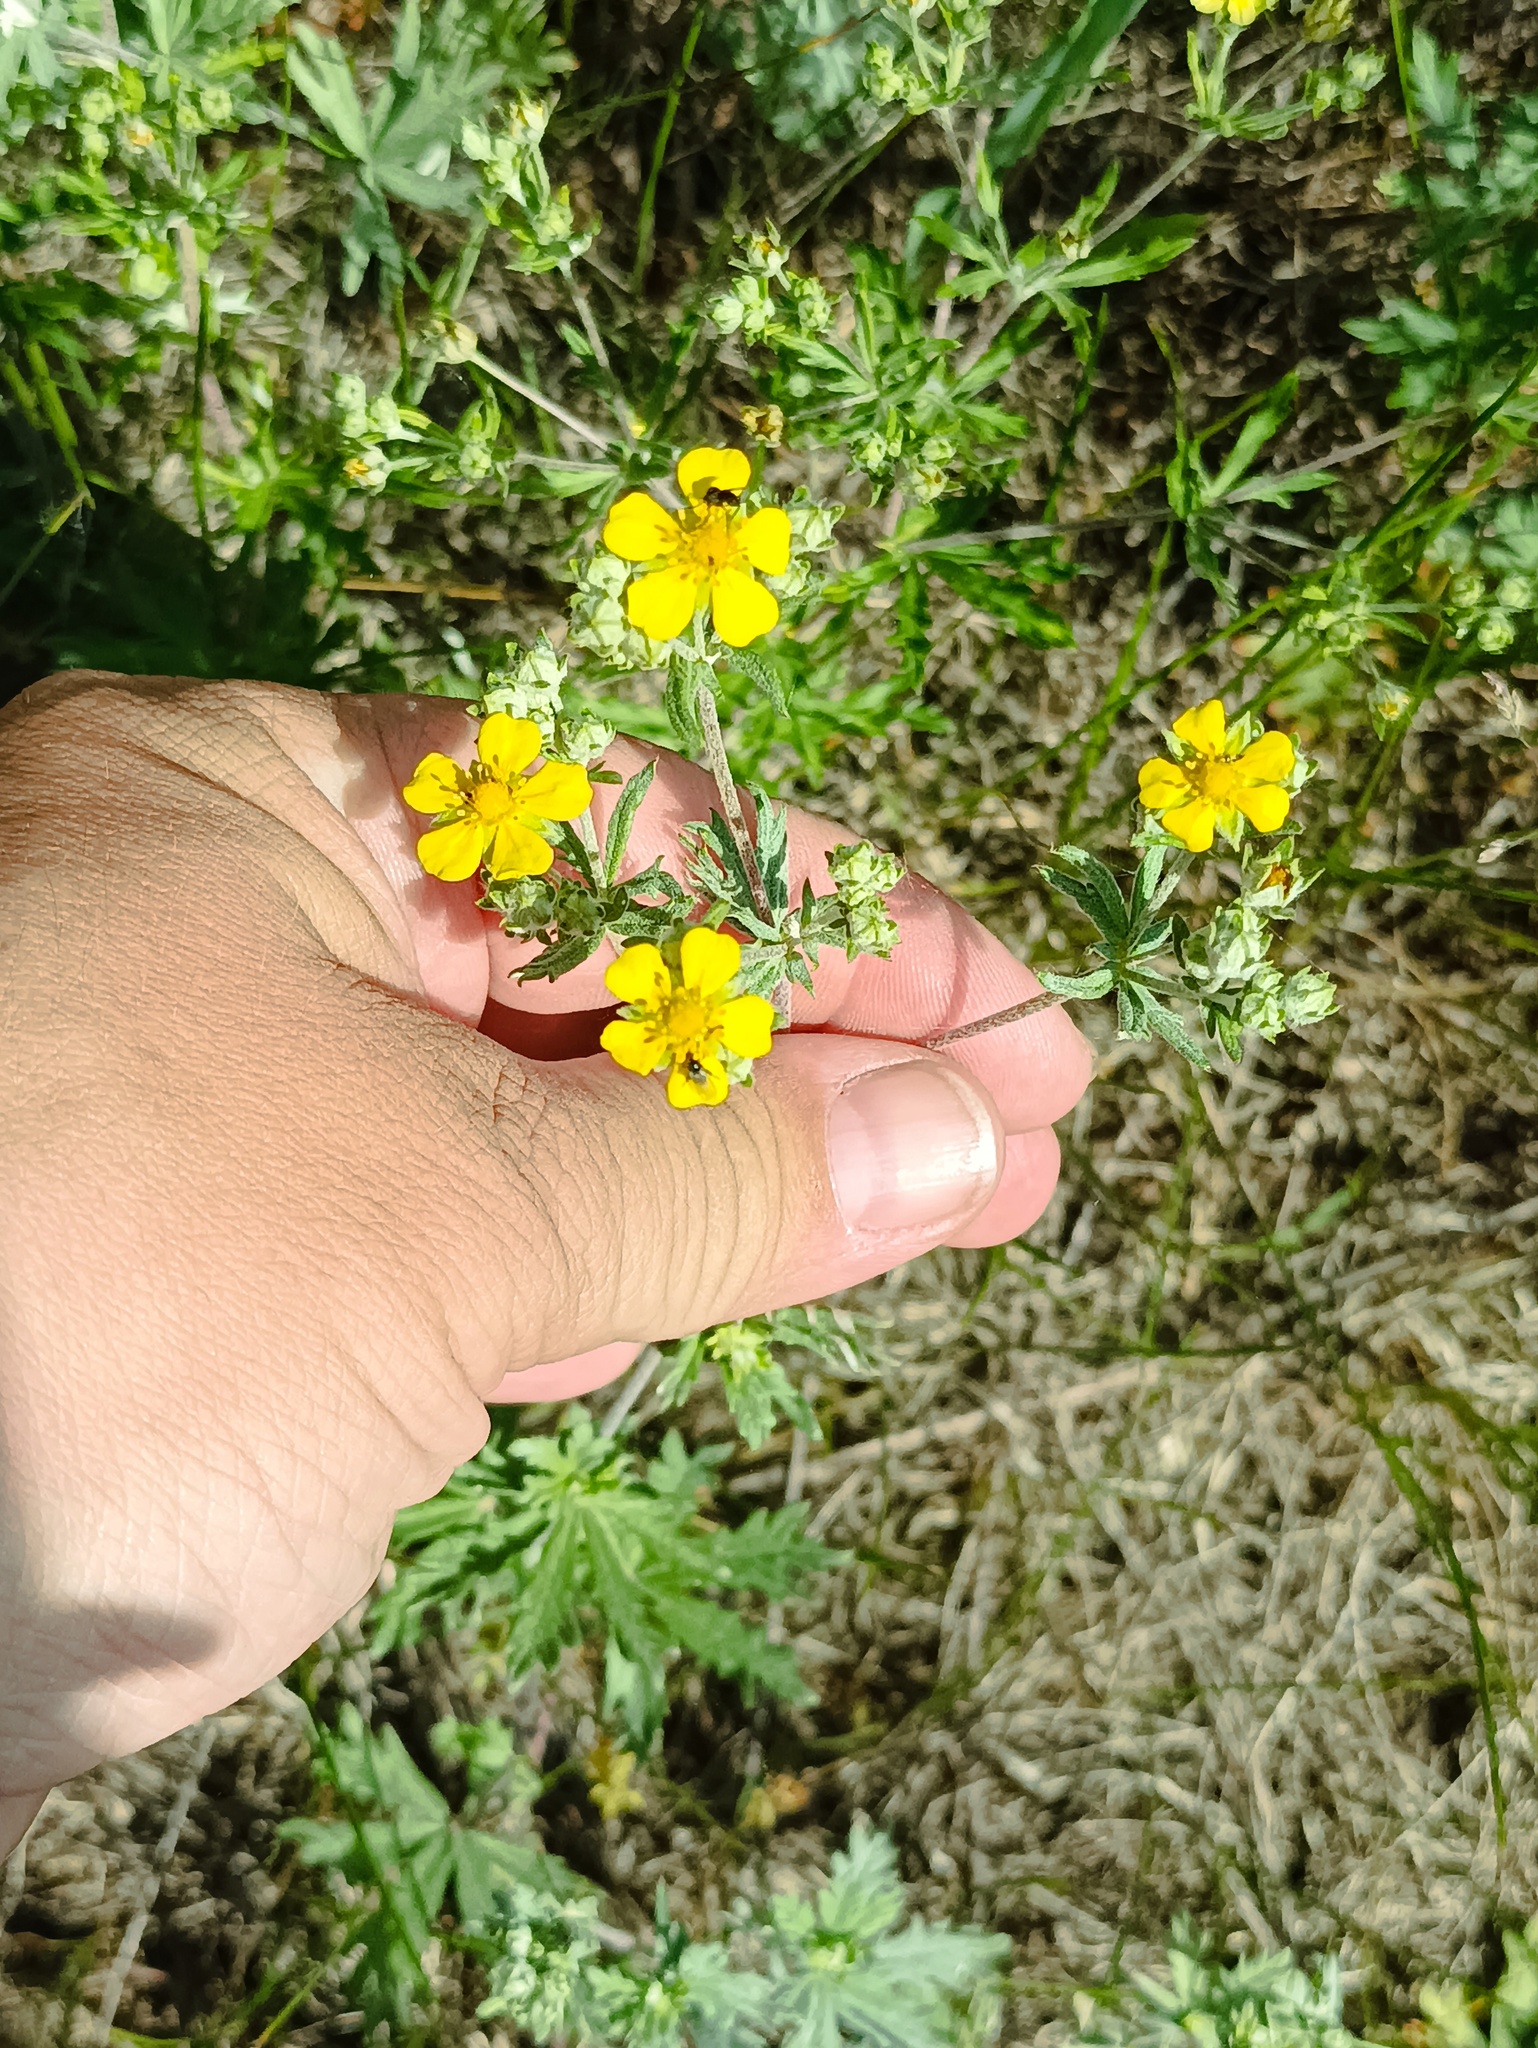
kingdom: Plantae
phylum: Tracheophyta
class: Magnoliopsida
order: Rosales
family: Rosaceae
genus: Potentilla
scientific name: Potentilla argentea
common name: Hoary cinquefoil
